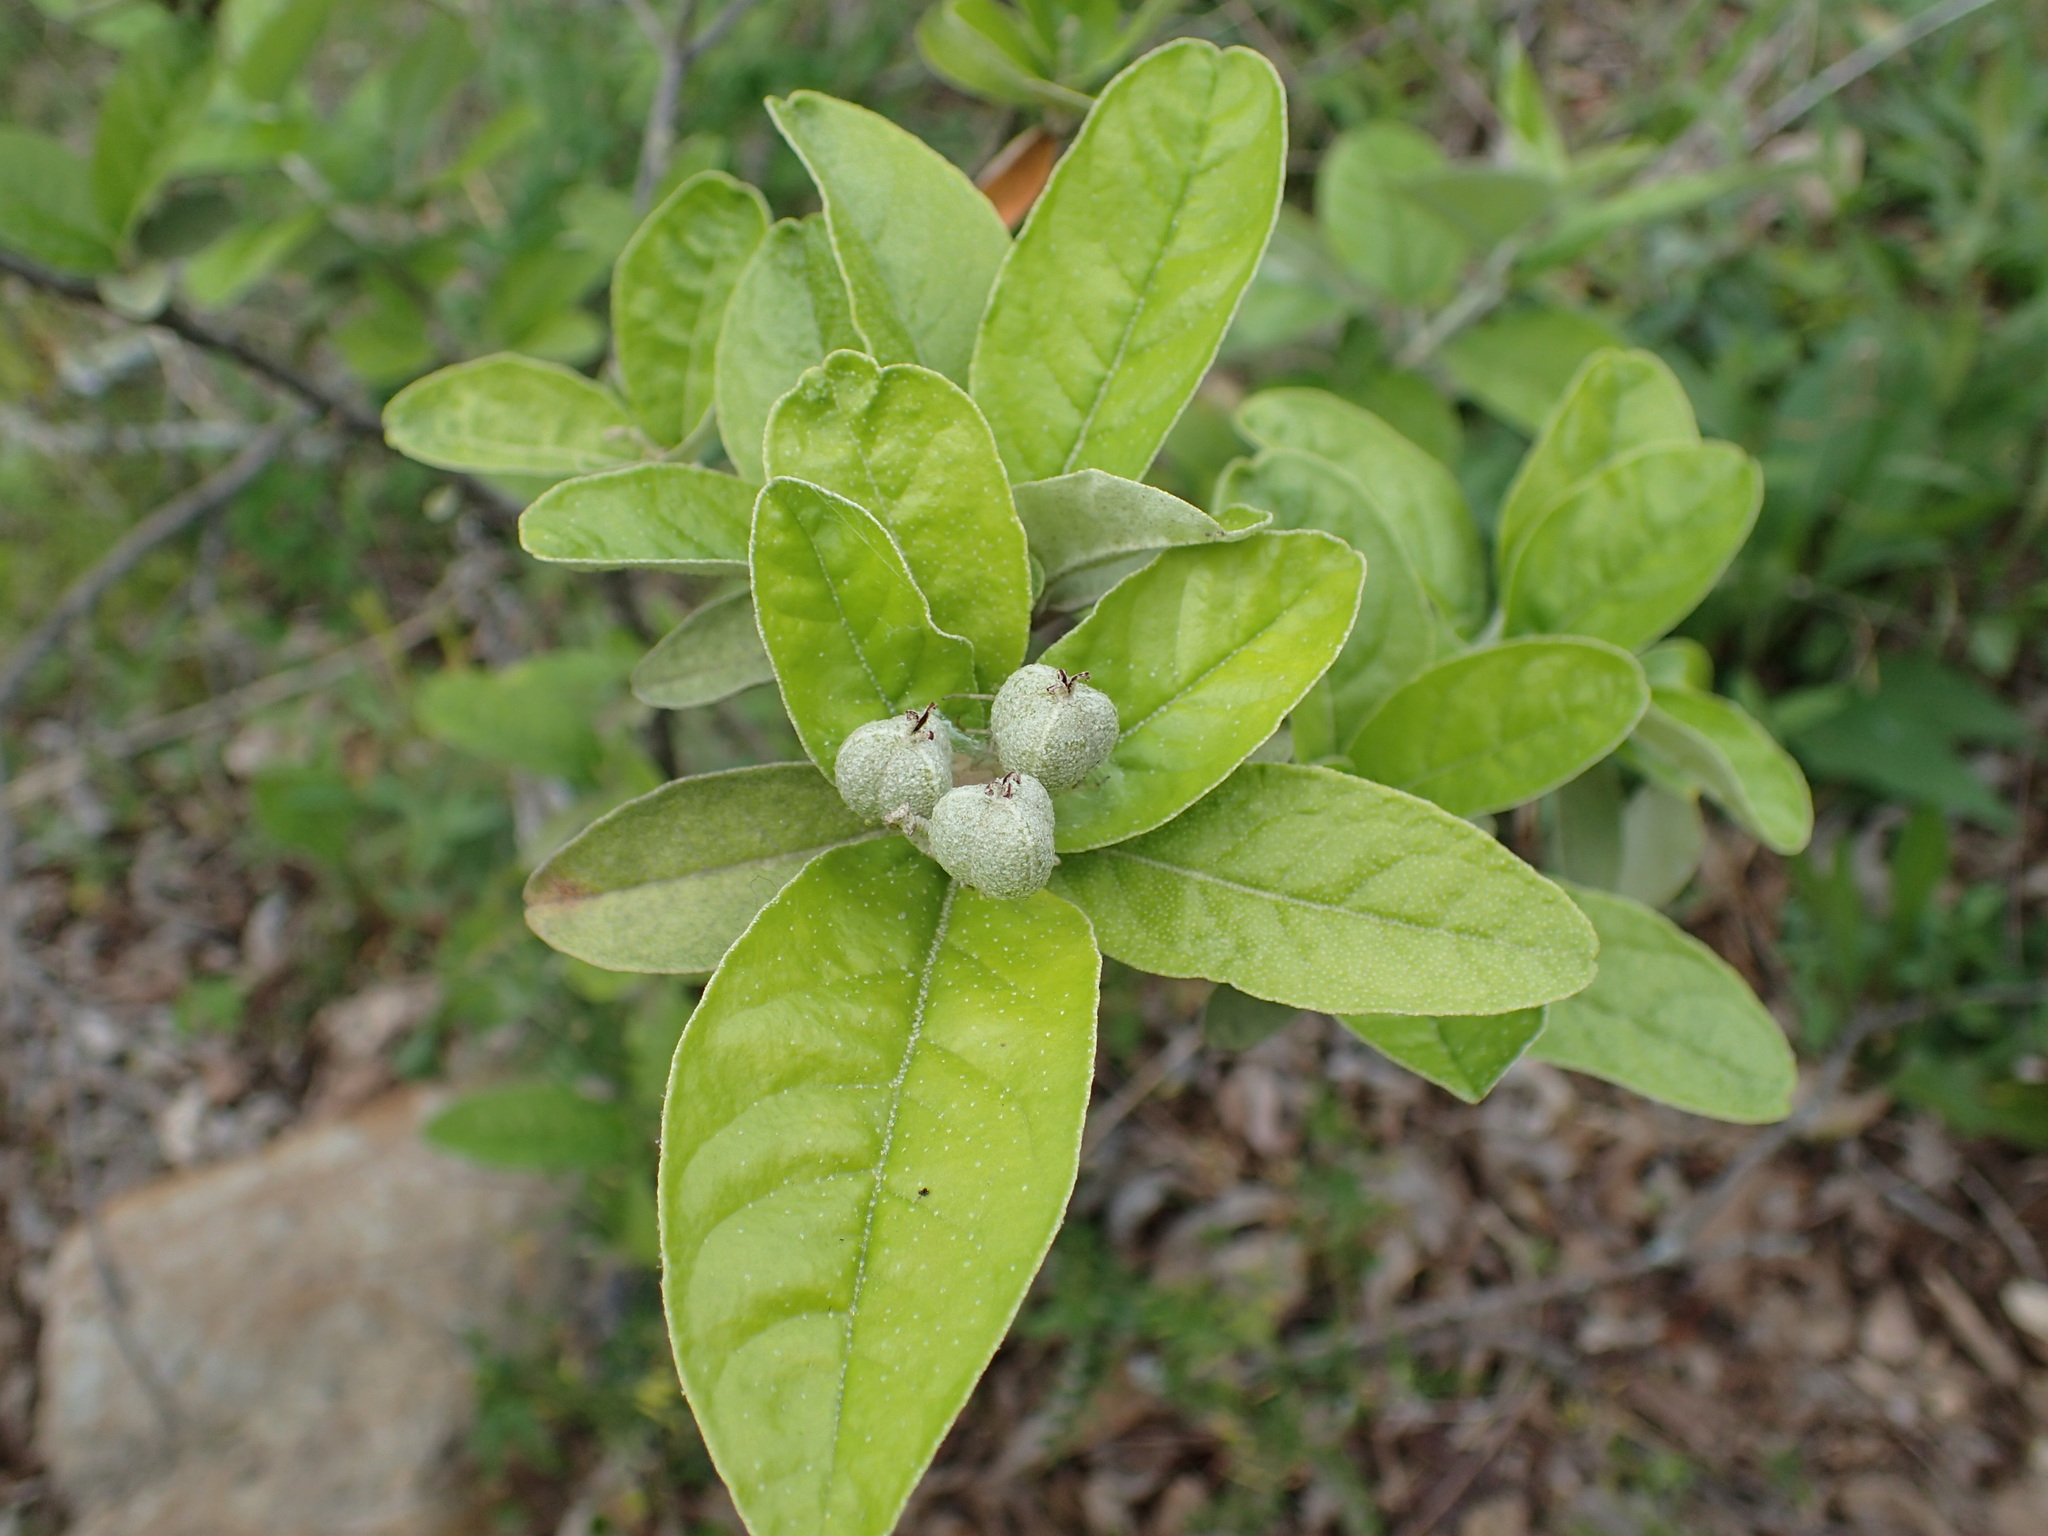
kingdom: Plantae
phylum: Tracheophyta
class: Magnoliopsida
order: Malpighiales
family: Euphorbiaceae
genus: Croton
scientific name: Croton alabamensis
